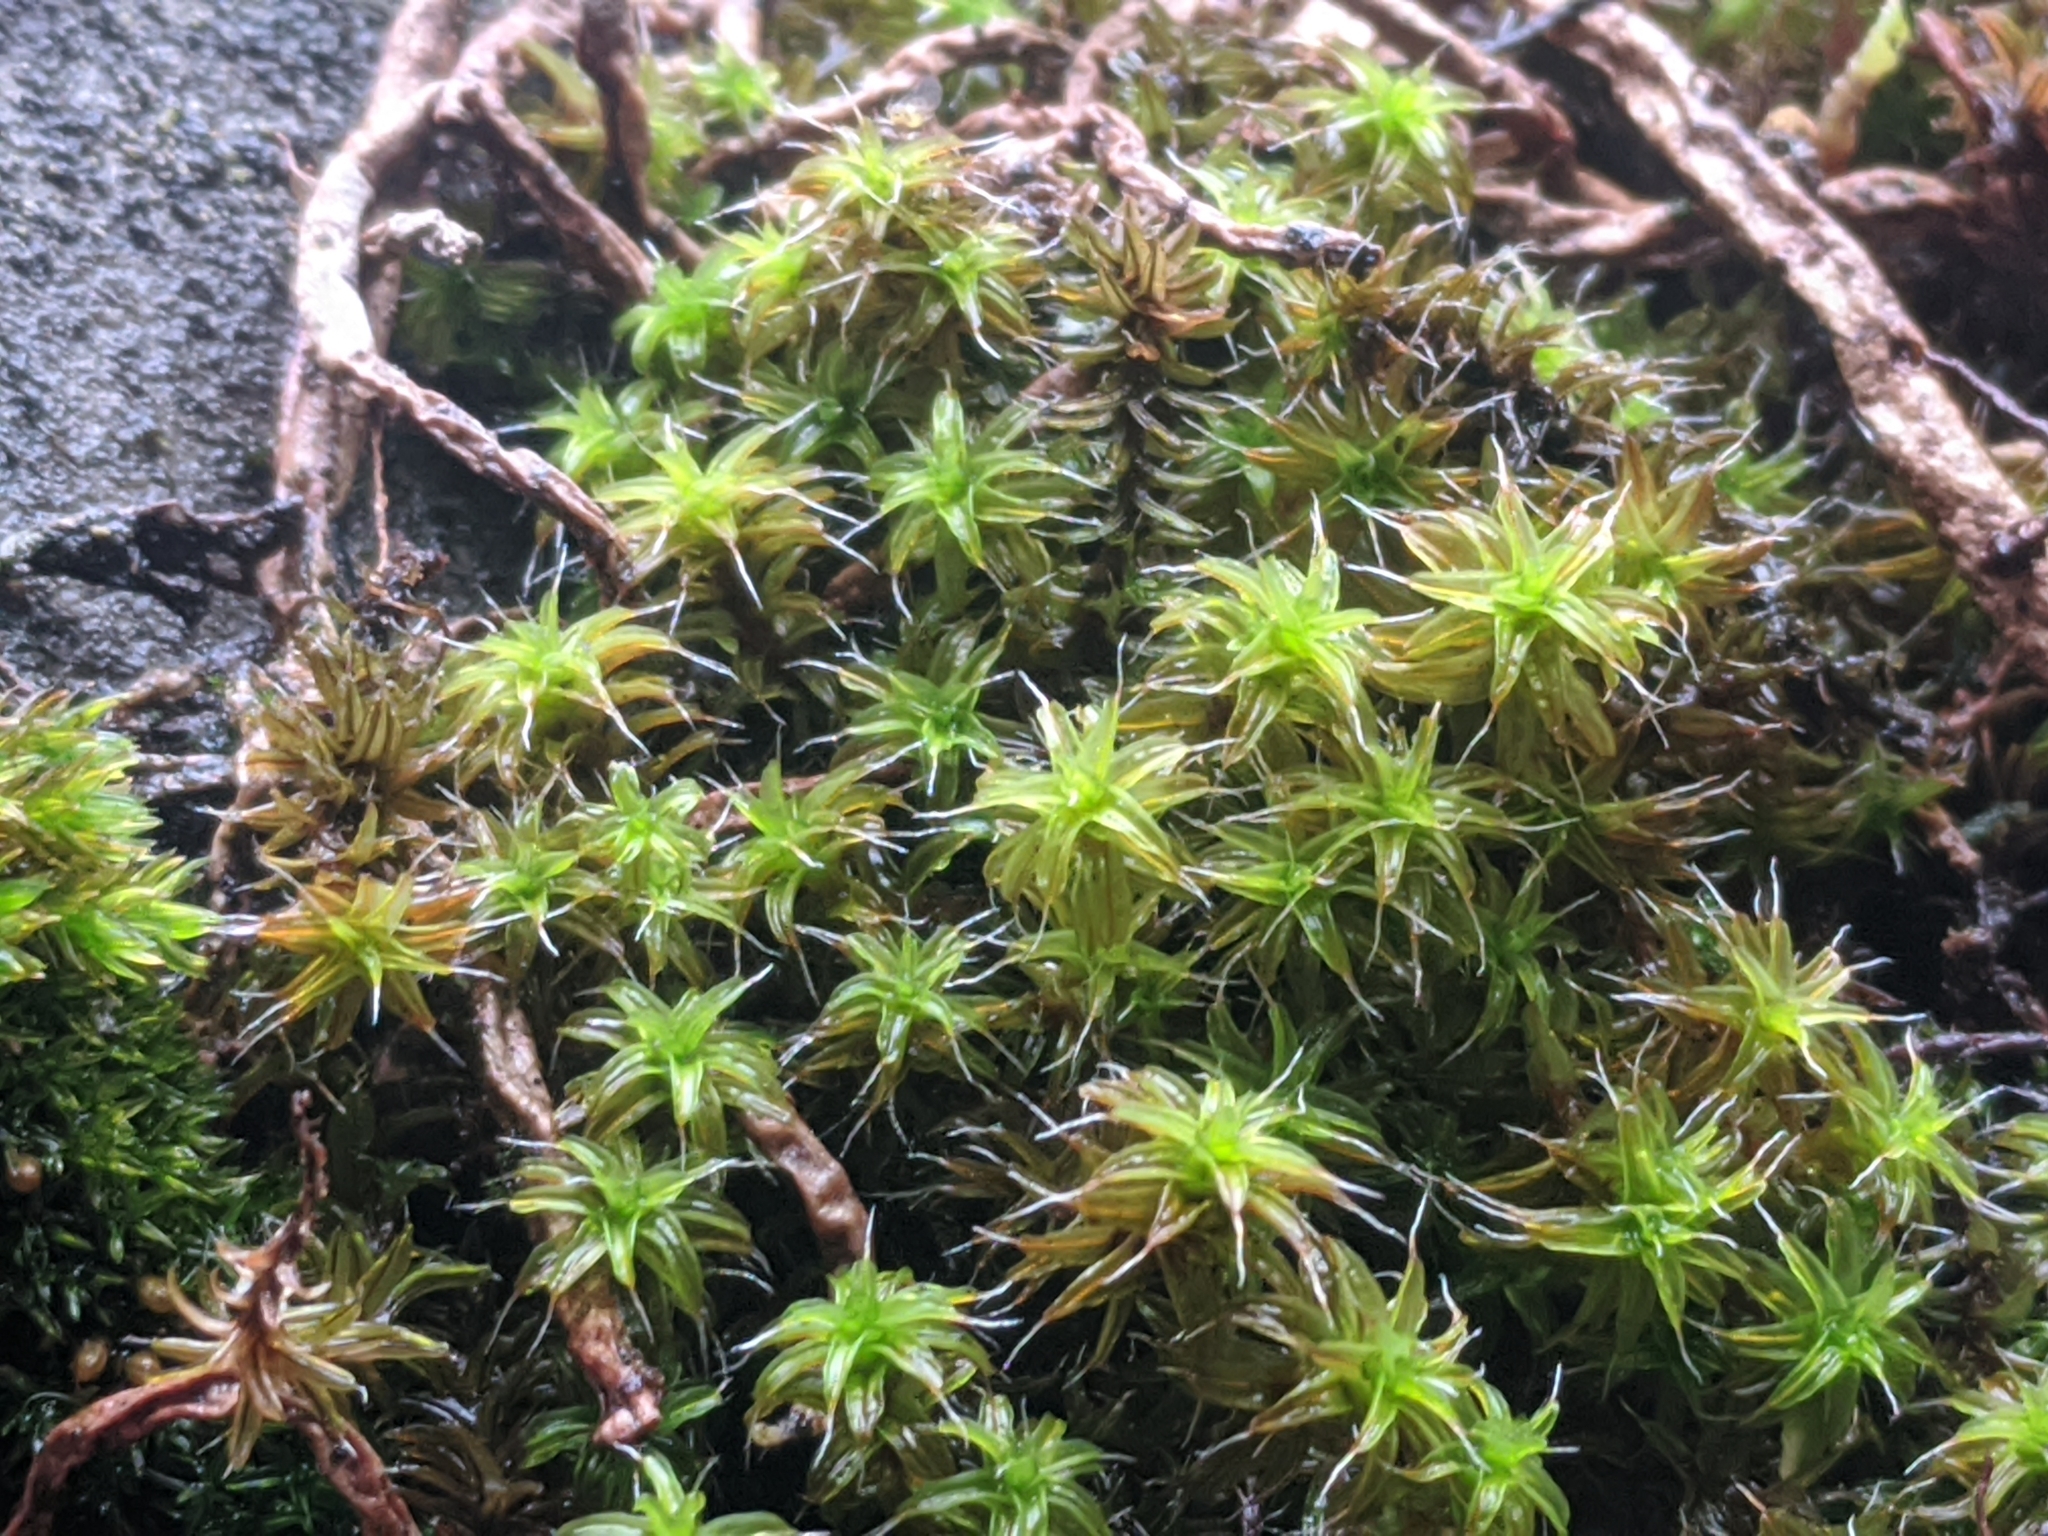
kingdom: Plantae
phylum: Bryophyta
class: Bryopsida
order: Pottiales
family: Pottiaceae
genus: Syntrichia
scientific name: Syntrichia ruralis
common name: Sidewalk screw moss
